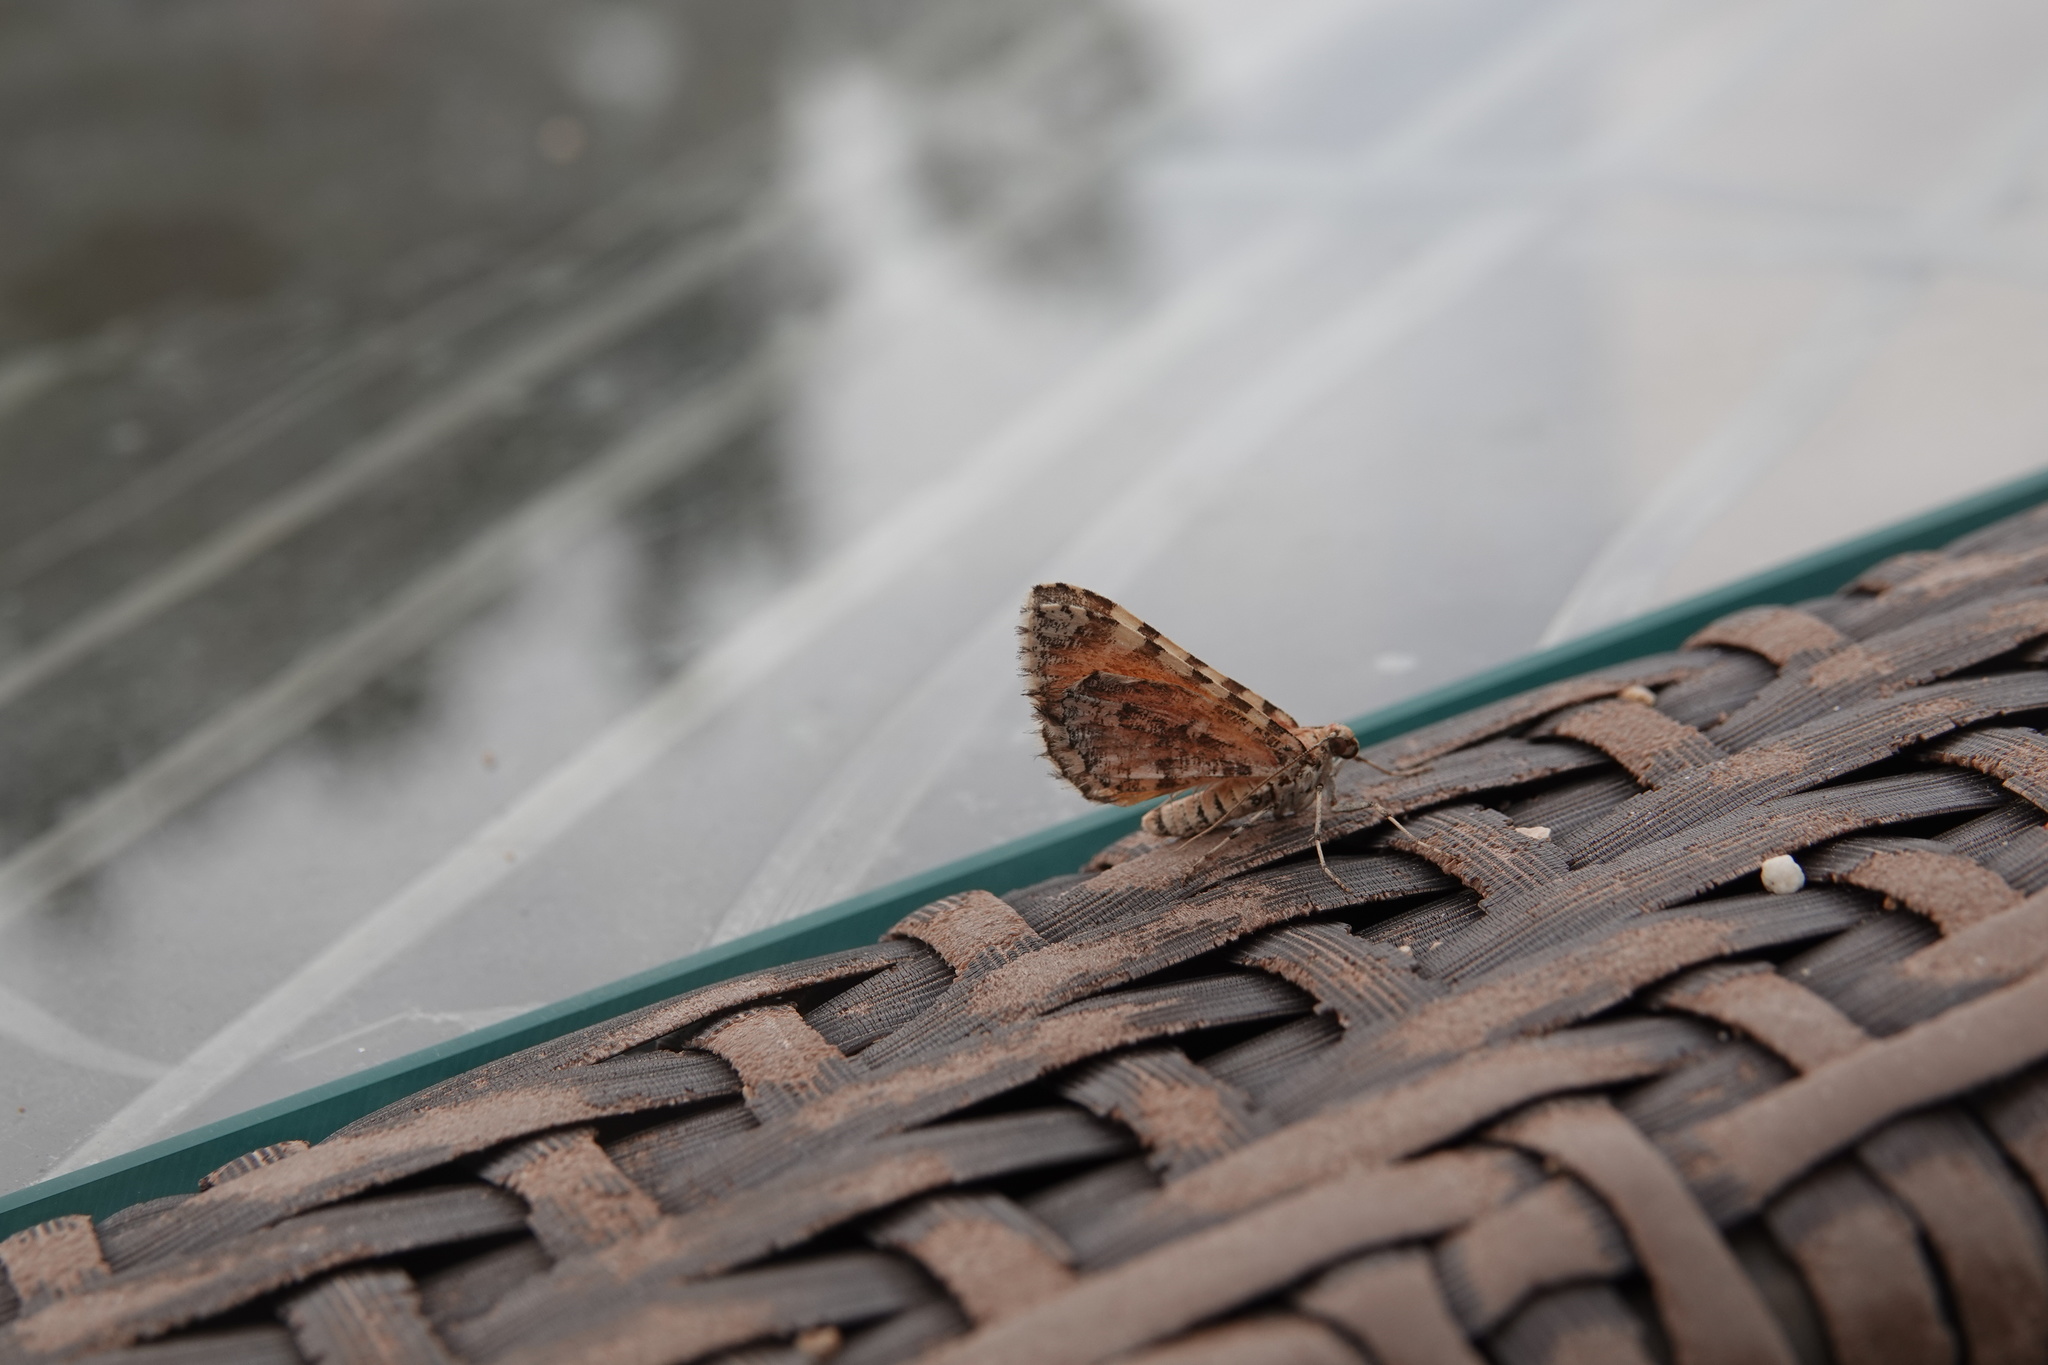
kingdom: Animalia
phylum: Arthropoda
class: Insecta
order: Lepidoptera
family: Geometridae
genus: Stamnodes
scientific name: Stamnodes tessellata
